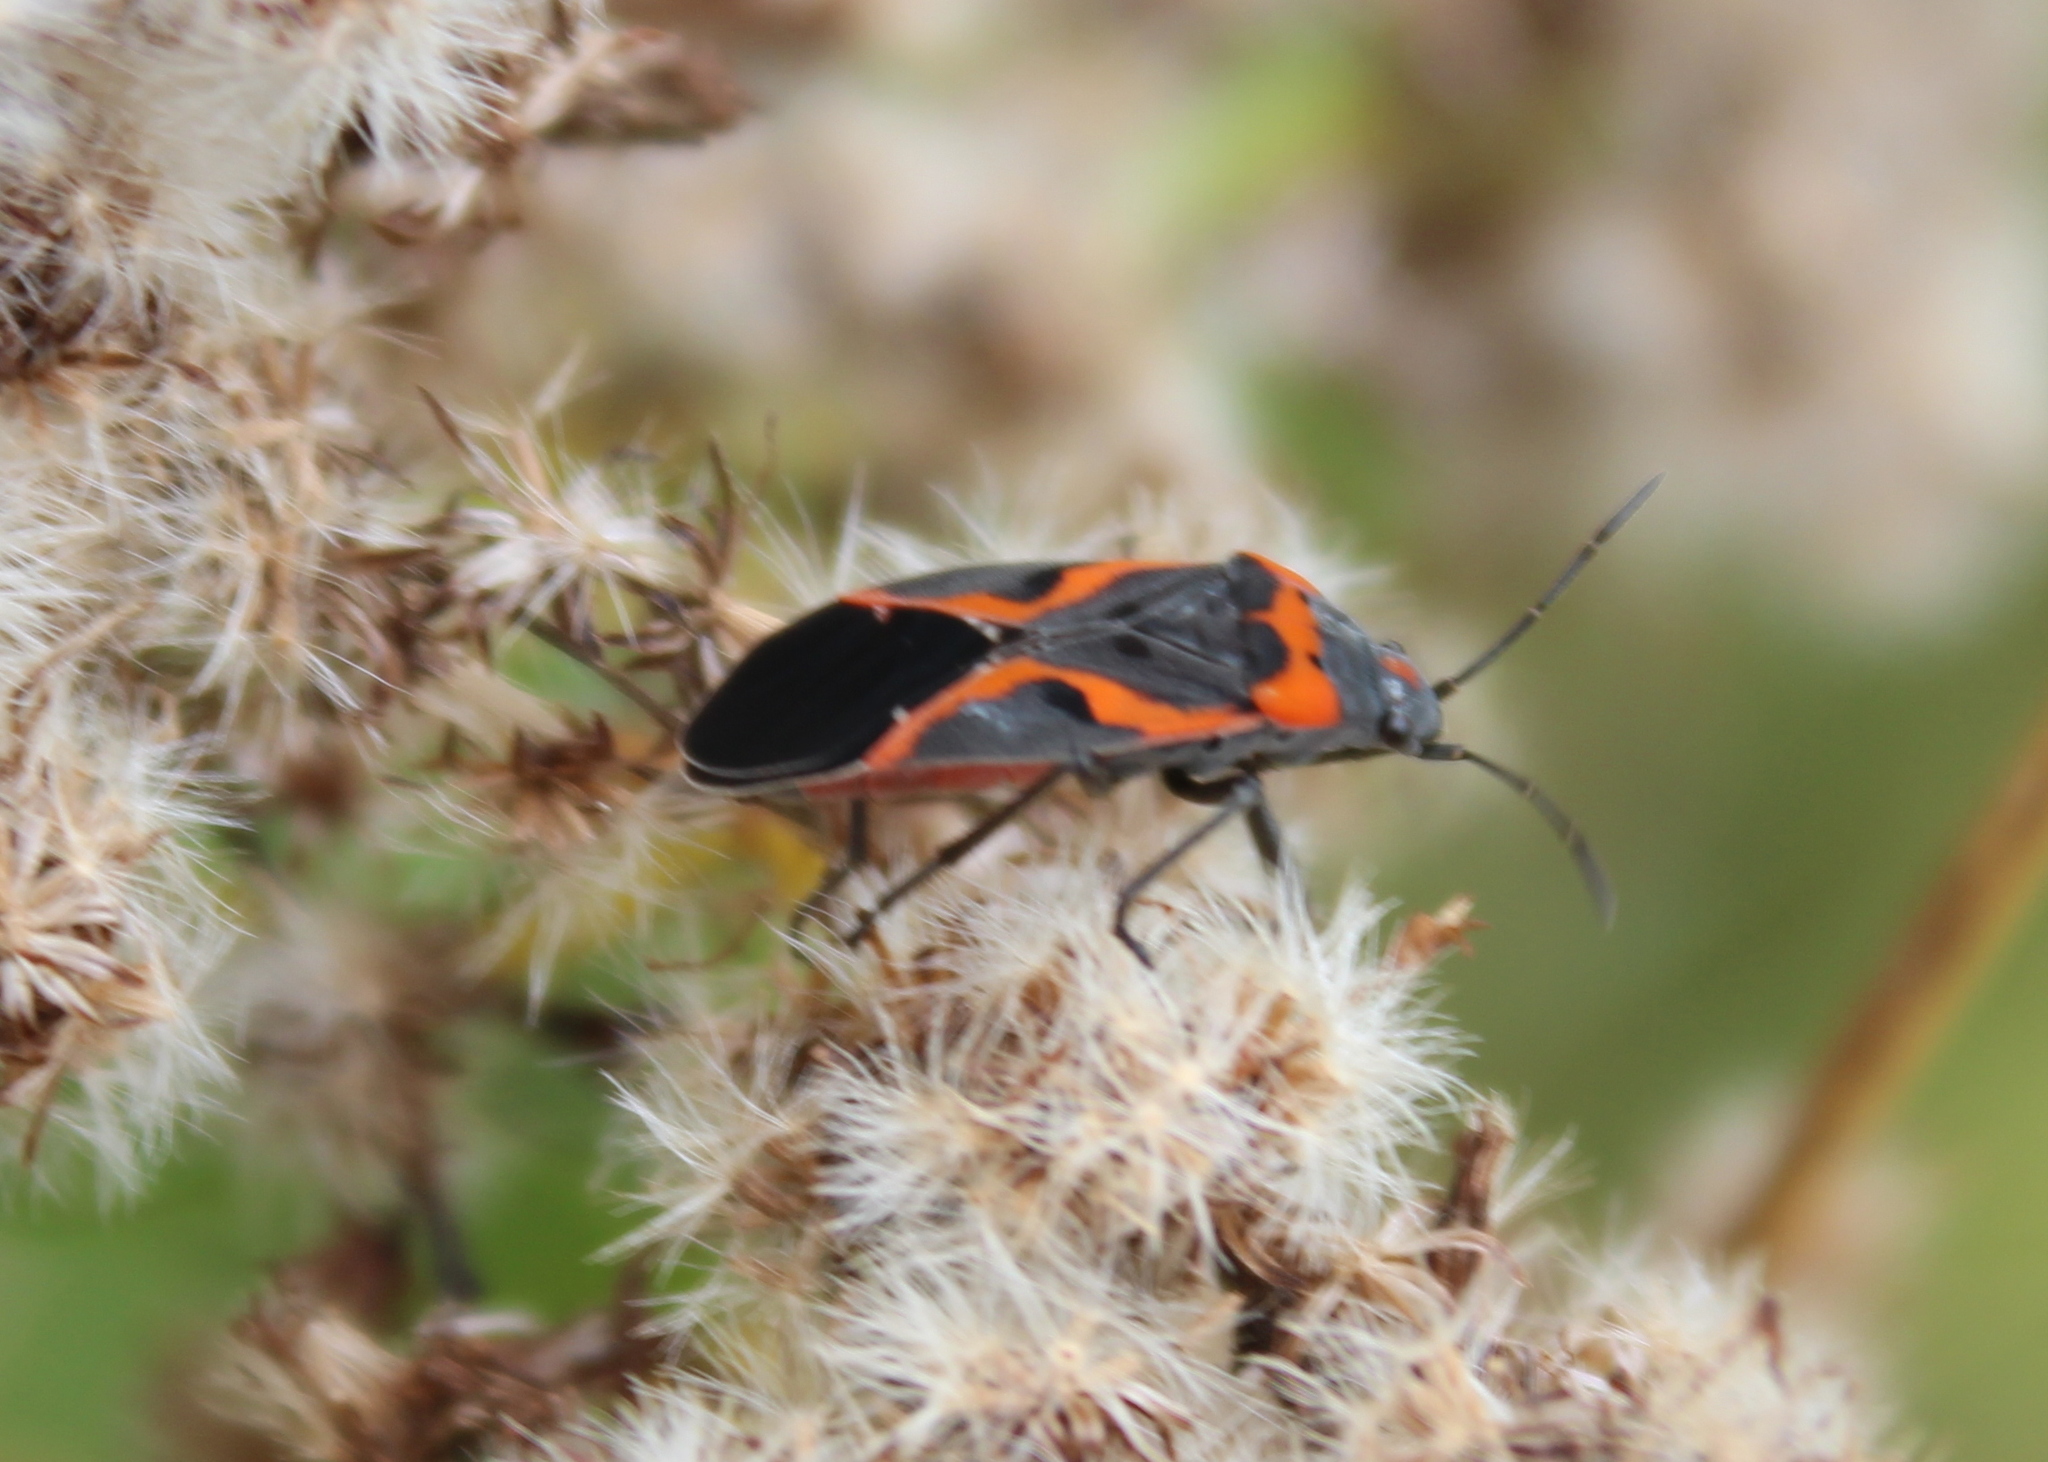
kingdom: Animalia
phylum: Arthropoda
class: Insecta
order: Hemiptera
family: Lygaeidae
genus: Lygaeus
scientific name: Lygaeus kalmii
